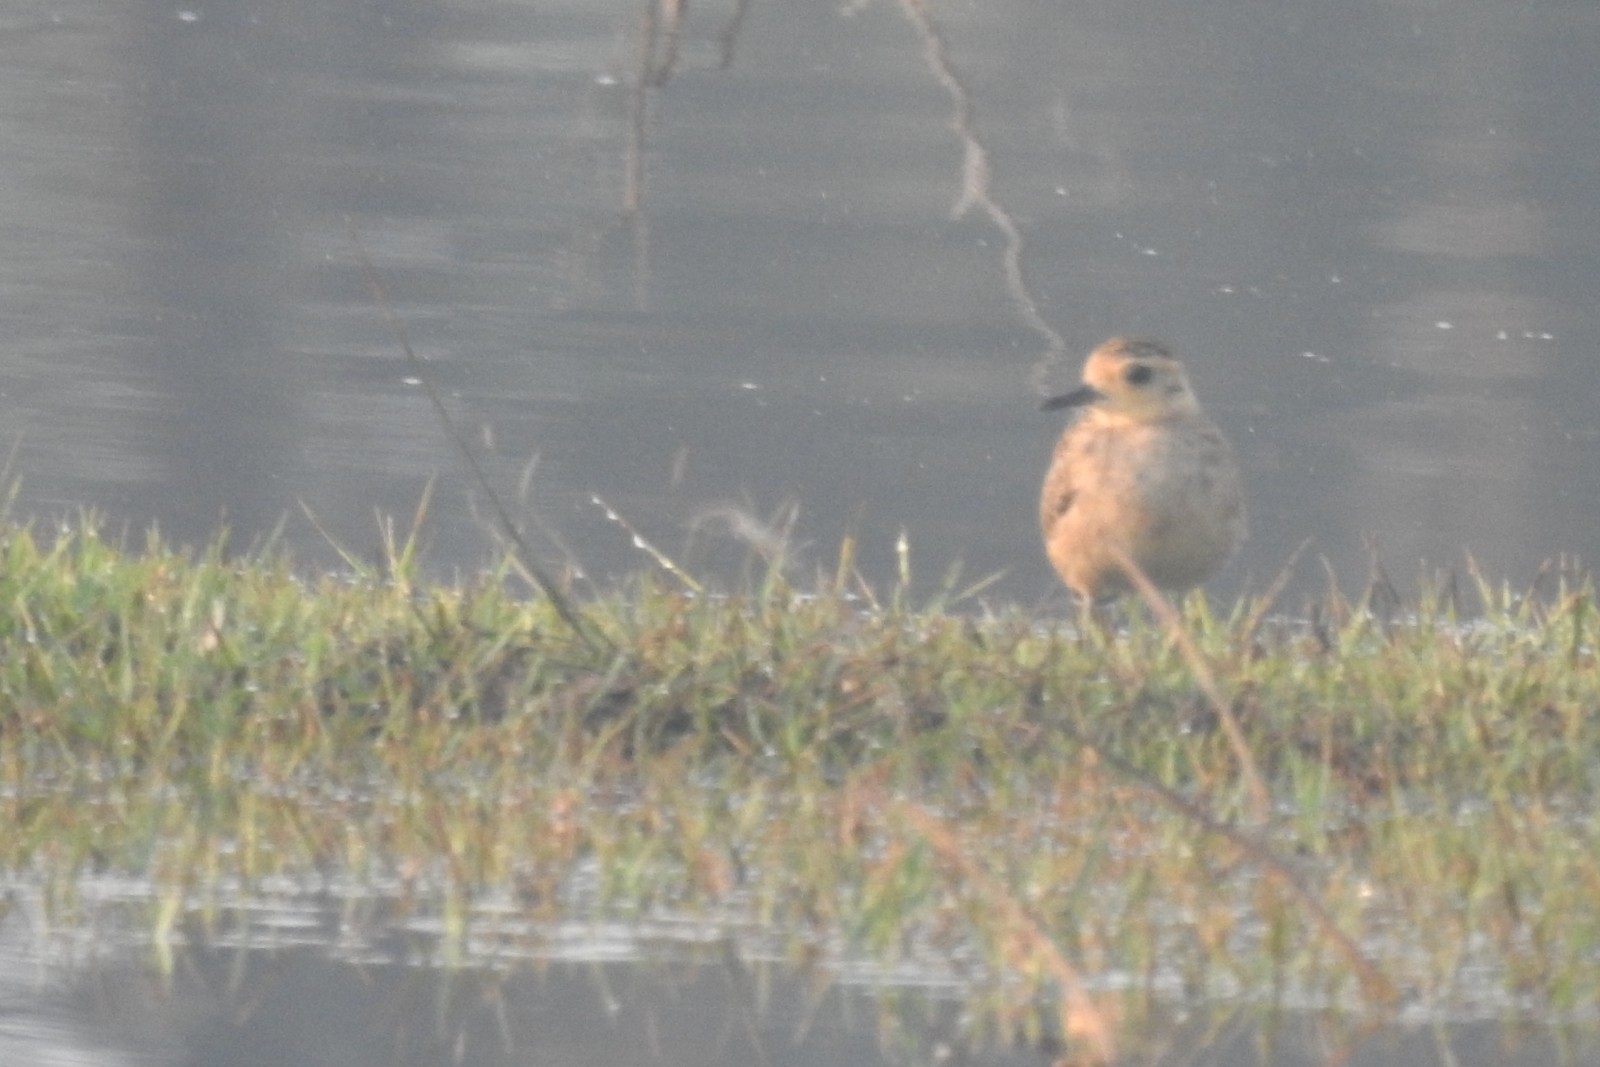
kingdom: Animalia
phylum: Chordata
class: Aves
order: Charadriiformes
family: Charadriidae
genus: Pluvialis
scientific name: Pluvialis fulva
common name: Pacific golden plover
